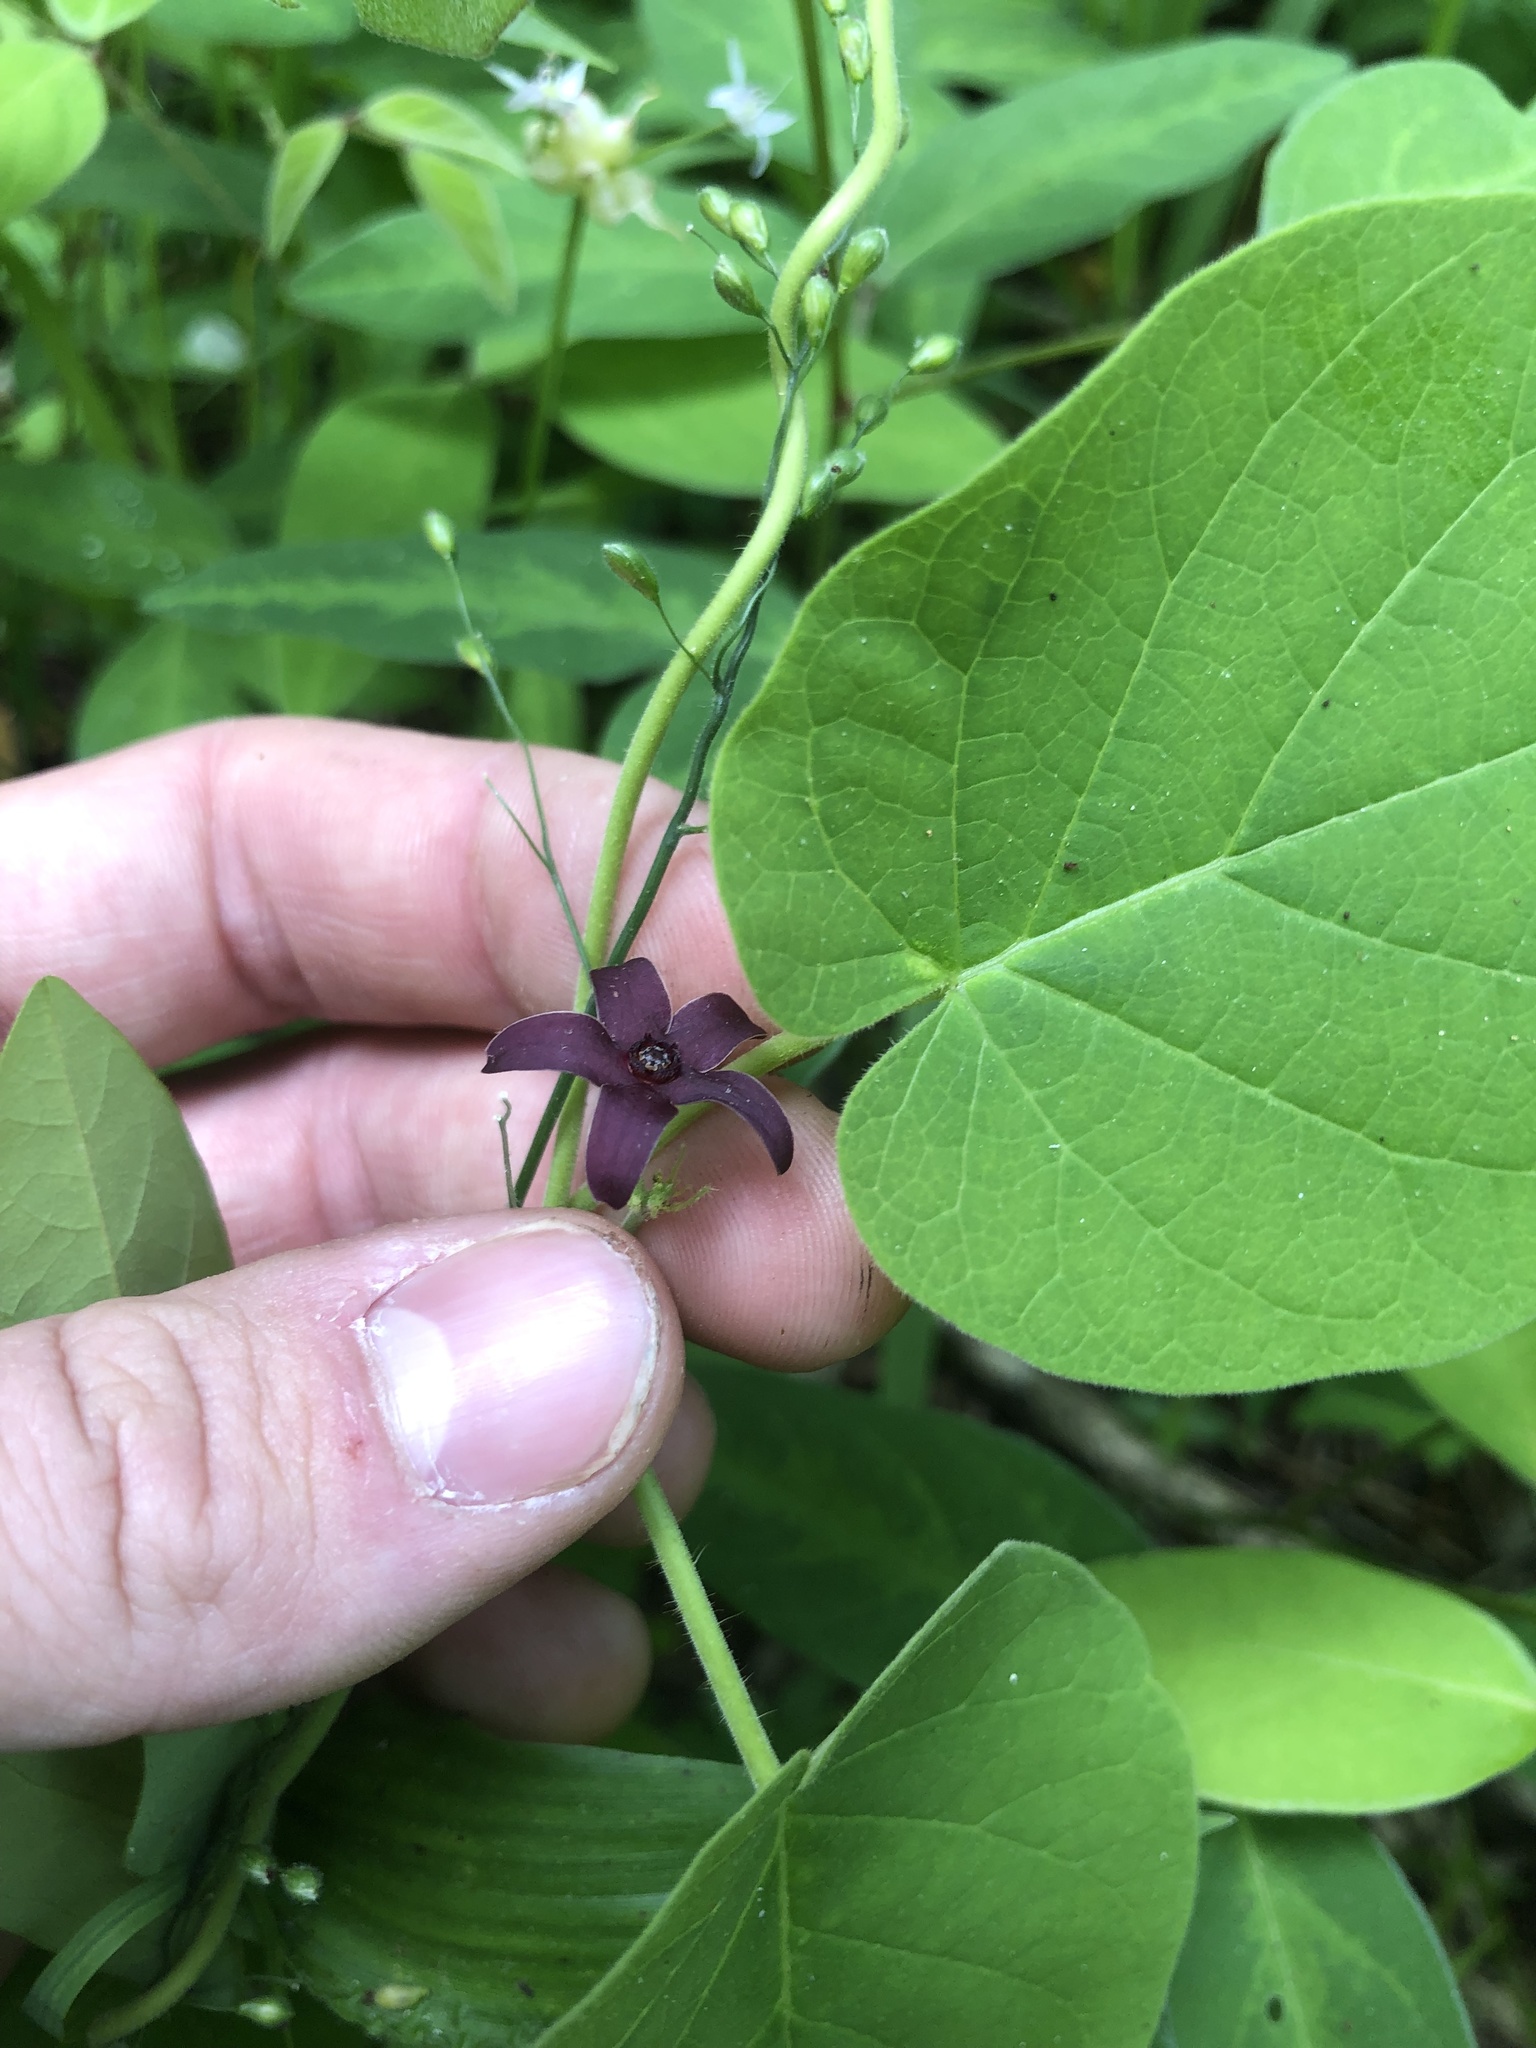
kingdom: Plantae
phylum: Tracheophyta
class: Magnoliopsida
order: Gentianales
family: Apocynaceae
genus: Matelea
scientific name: Matelea carolinensis
